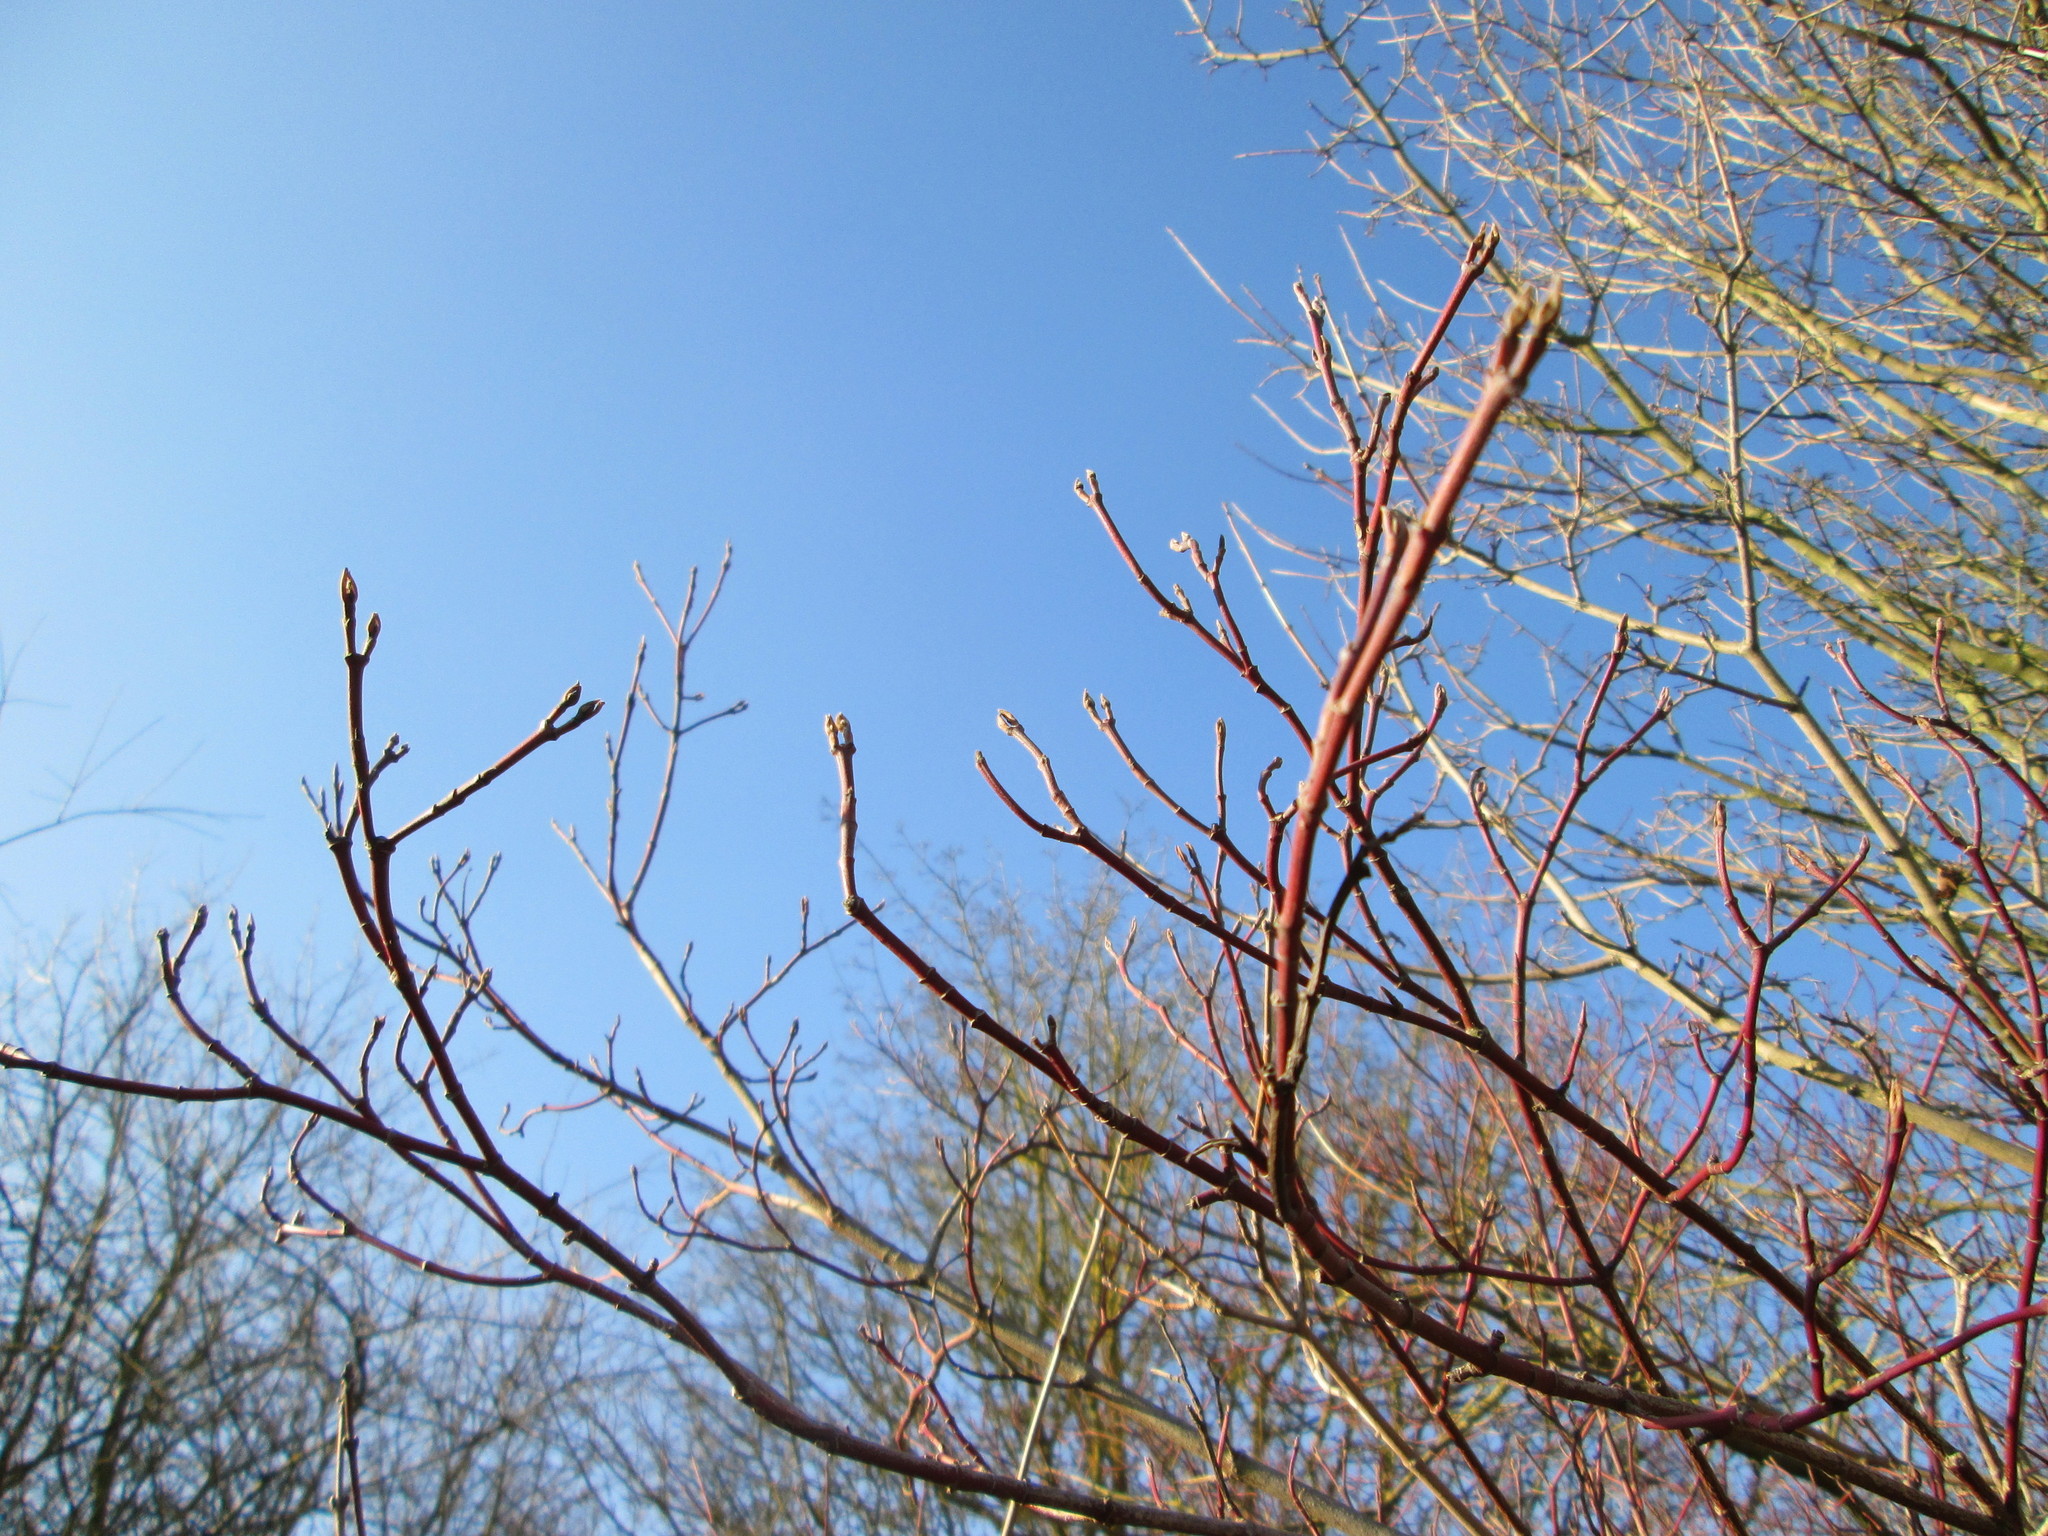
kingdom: Plantae
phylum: Tracheophyta
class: Magnoliopsida
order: Cornales
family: Cornaceae
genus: Cornus
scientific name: Cornus sanguinea
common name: Dogwood
